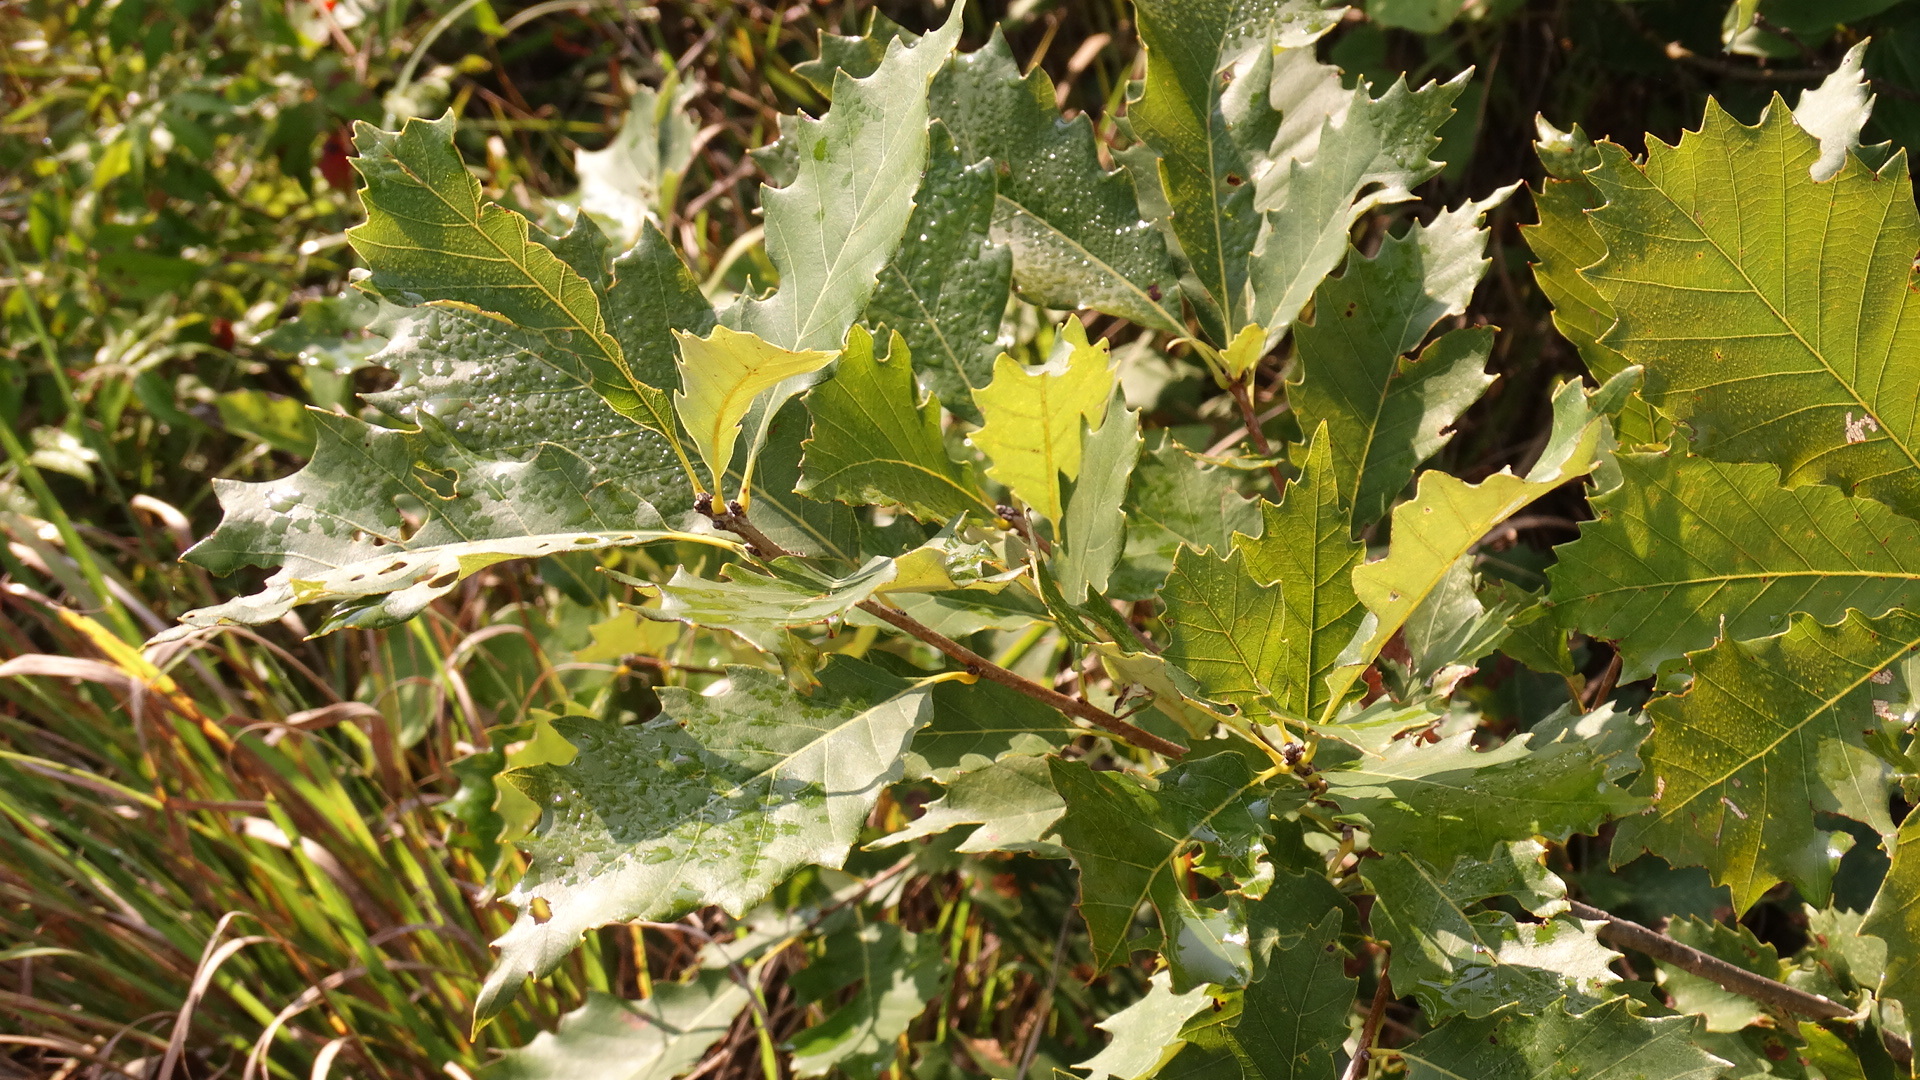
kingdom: Plantae
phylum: Tracheophyta
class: Magnoliopsida
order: Fagales
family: Fagaceae
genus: Quercus
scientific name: Quercus muehlenbergii
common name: Chinkapin oak
